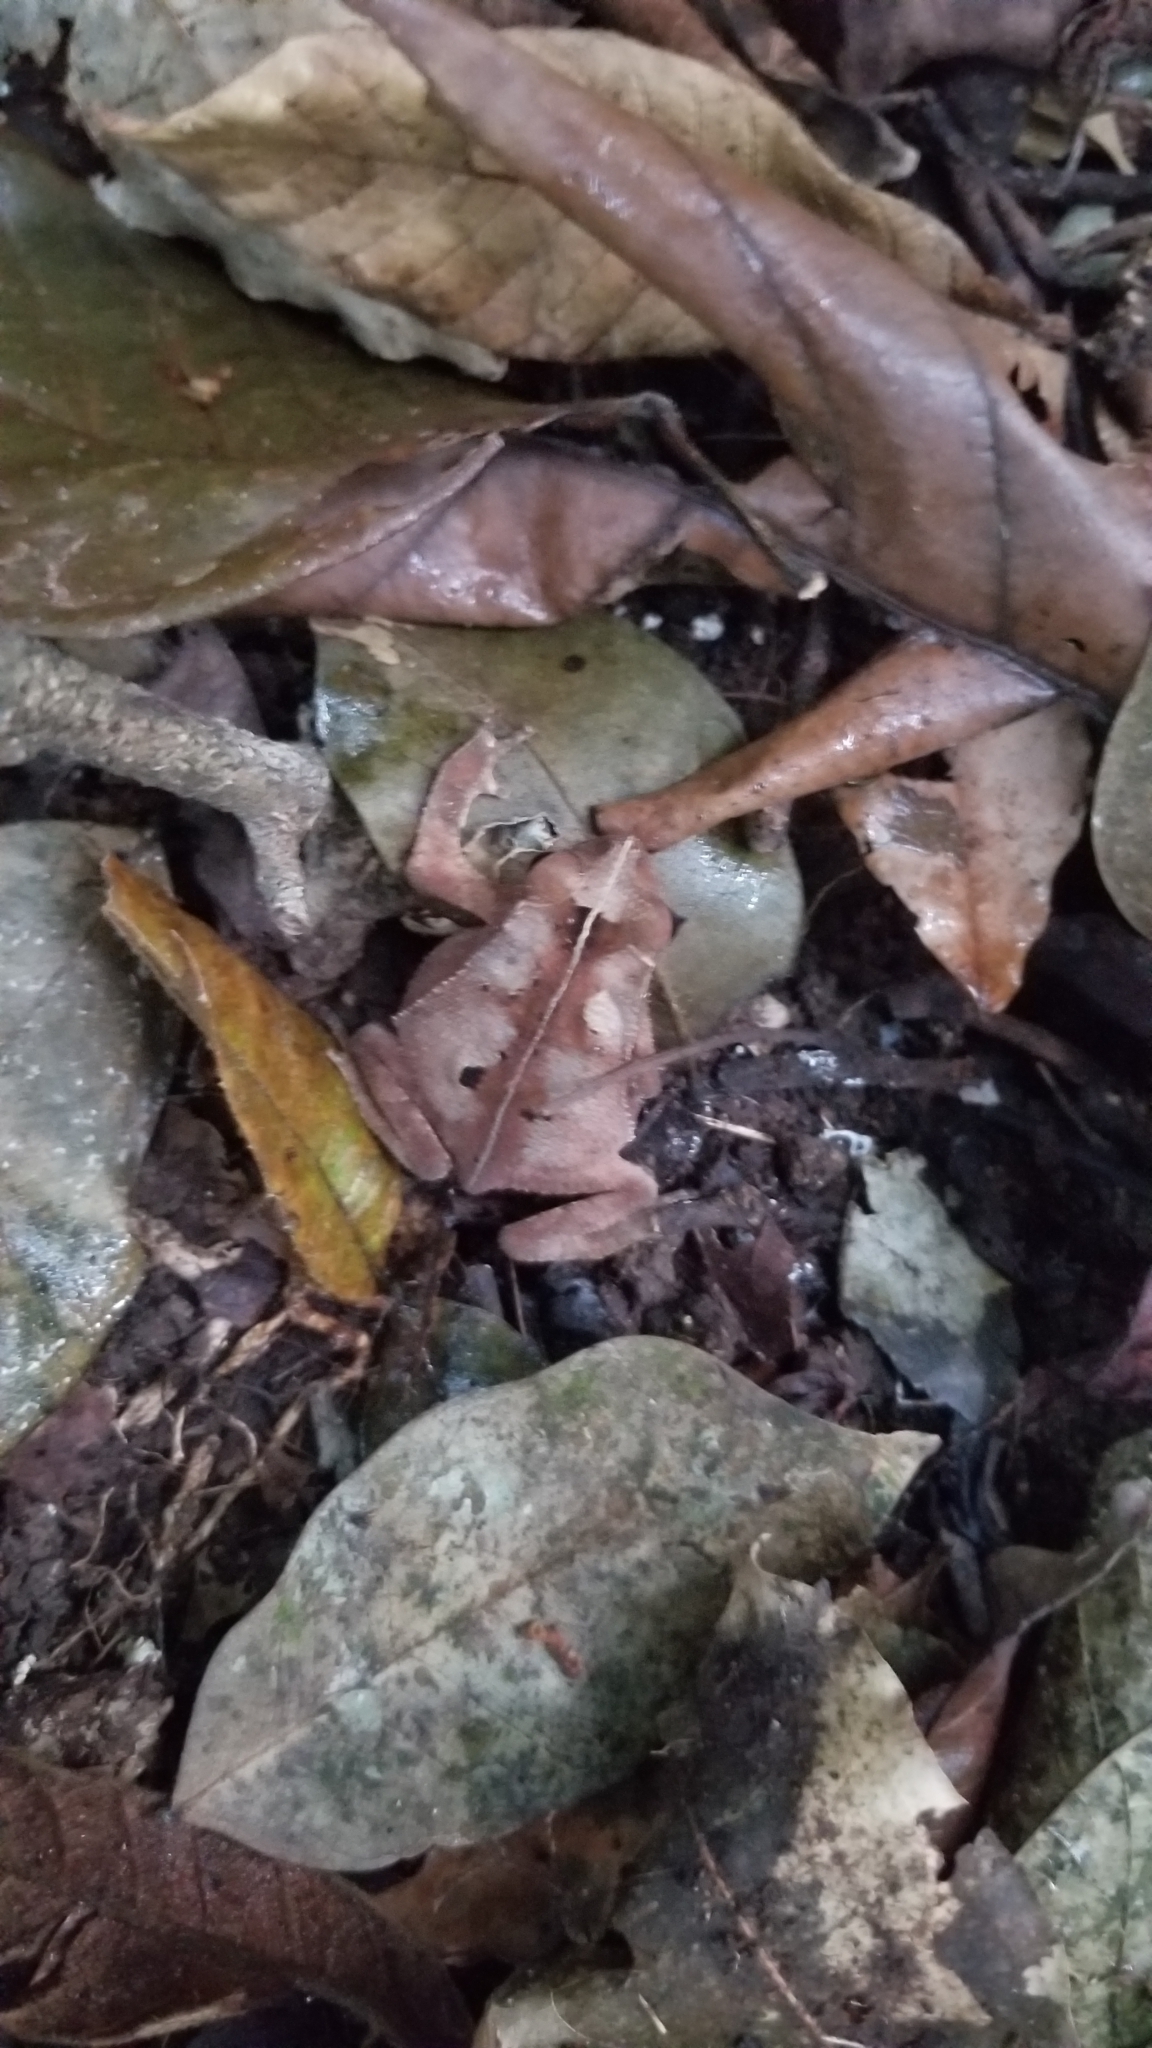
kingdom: Animalia
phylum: Chordata
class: Amphibia
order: Anura
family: Bufonidae
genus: Rhinella
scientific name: Rhinella alata
